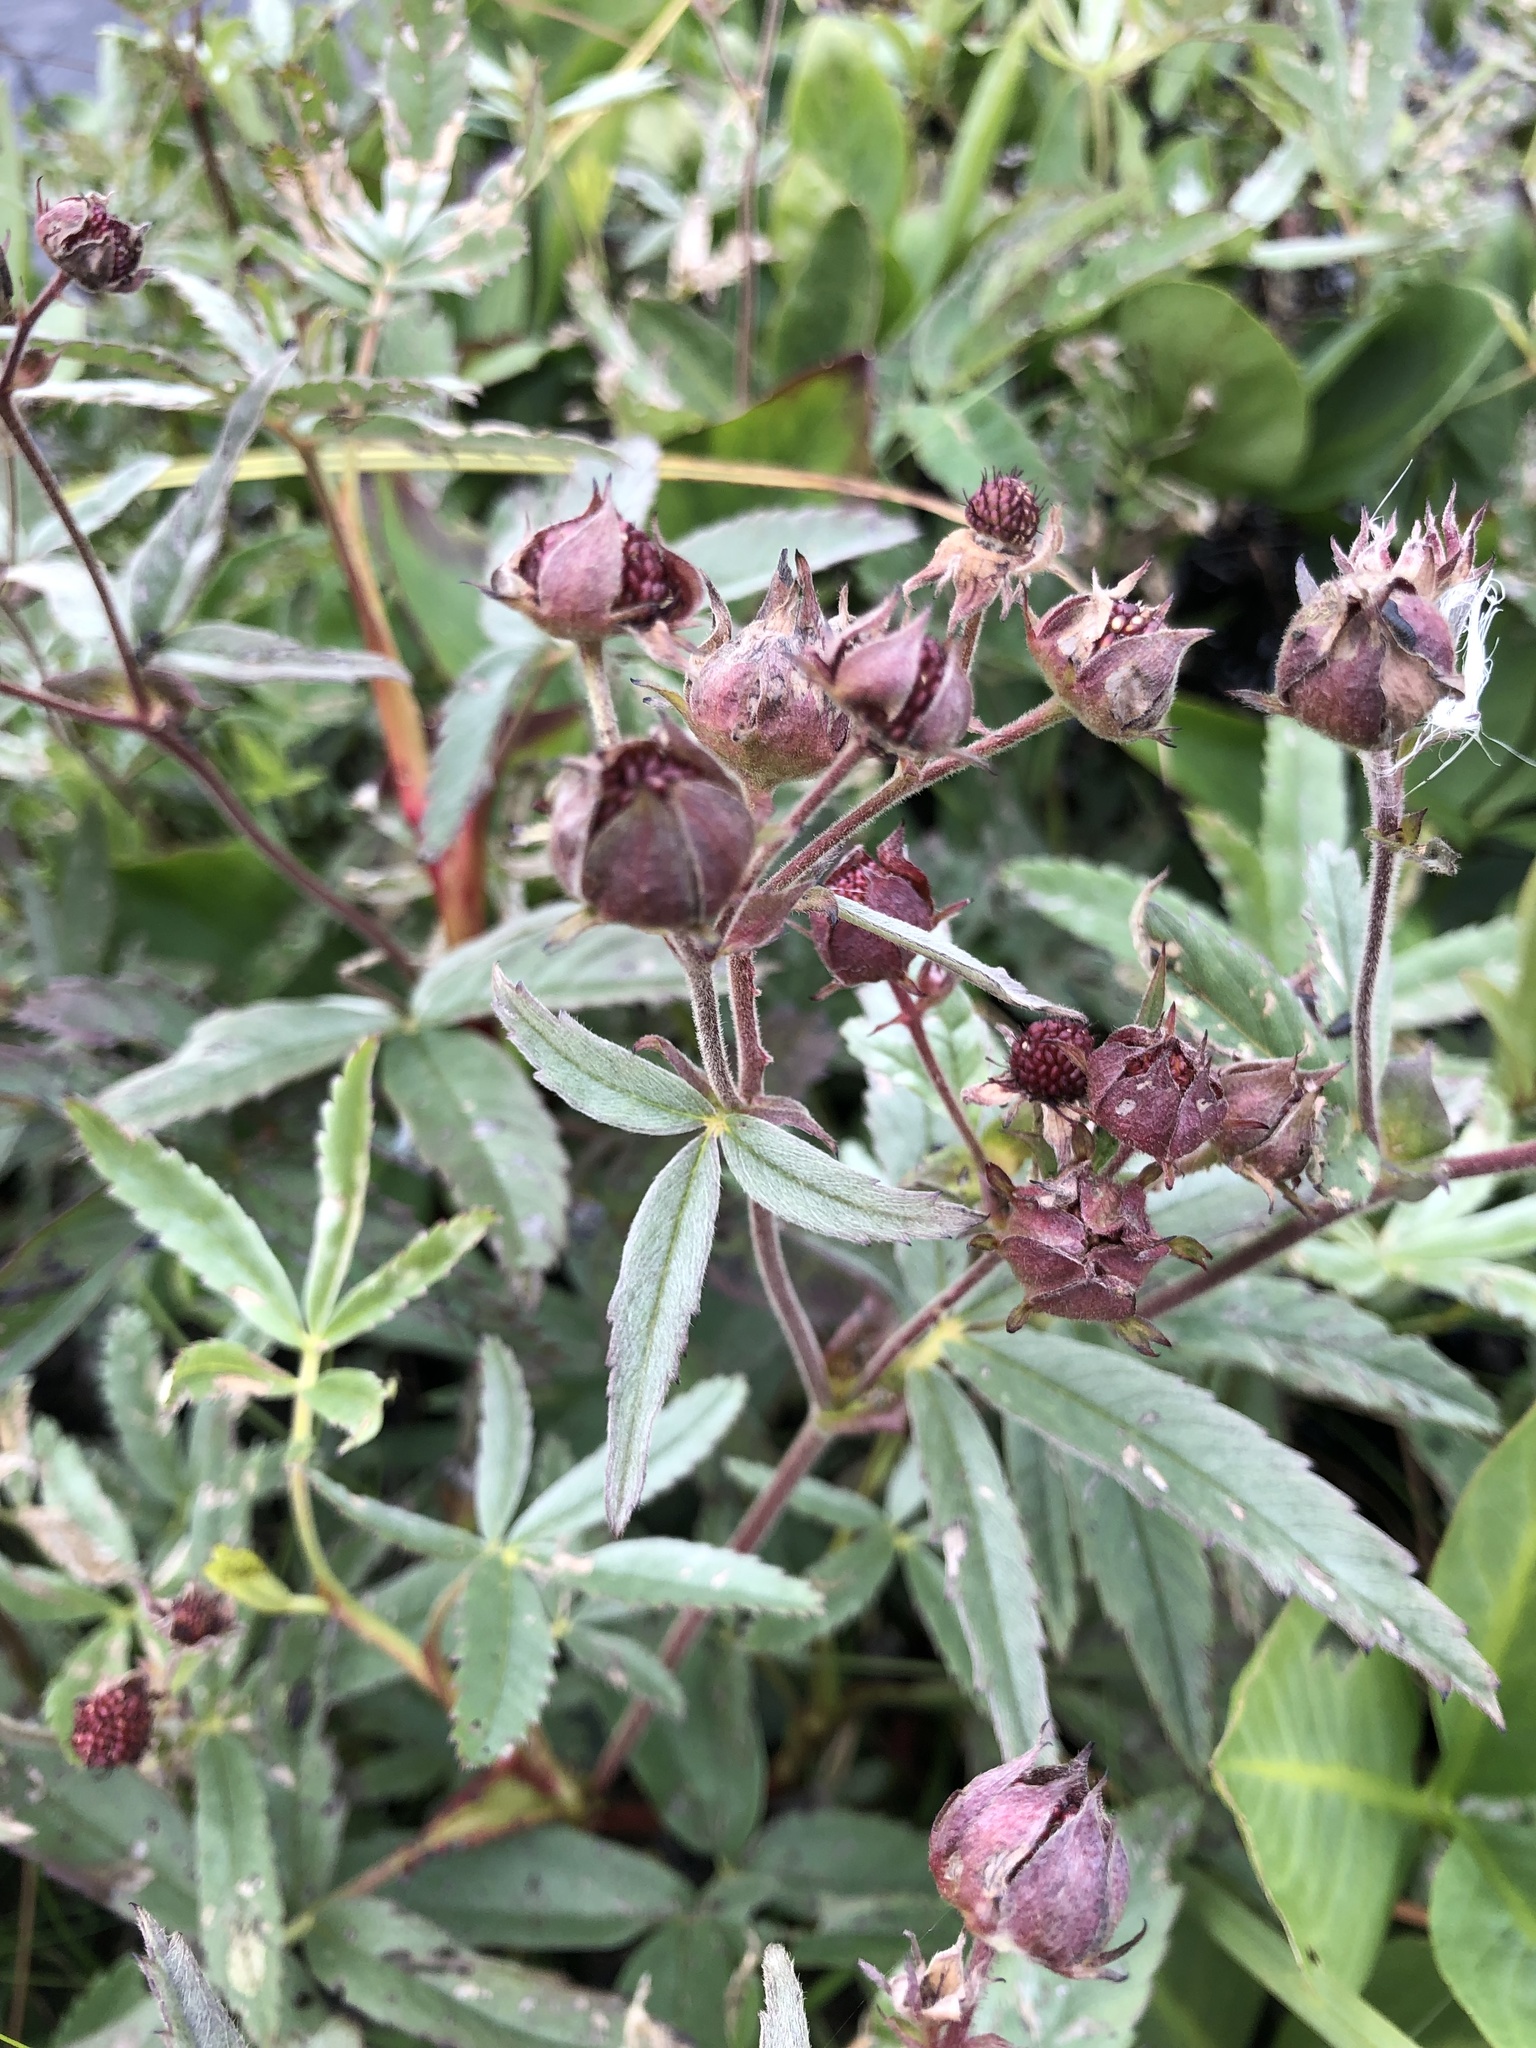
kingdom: Plantae
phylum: Tracheophyta
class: Magnoliopsida
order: Rosales
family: Rosaceae
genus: Comarum
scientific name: Comarum palustre
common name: Marsh cinquefoil
